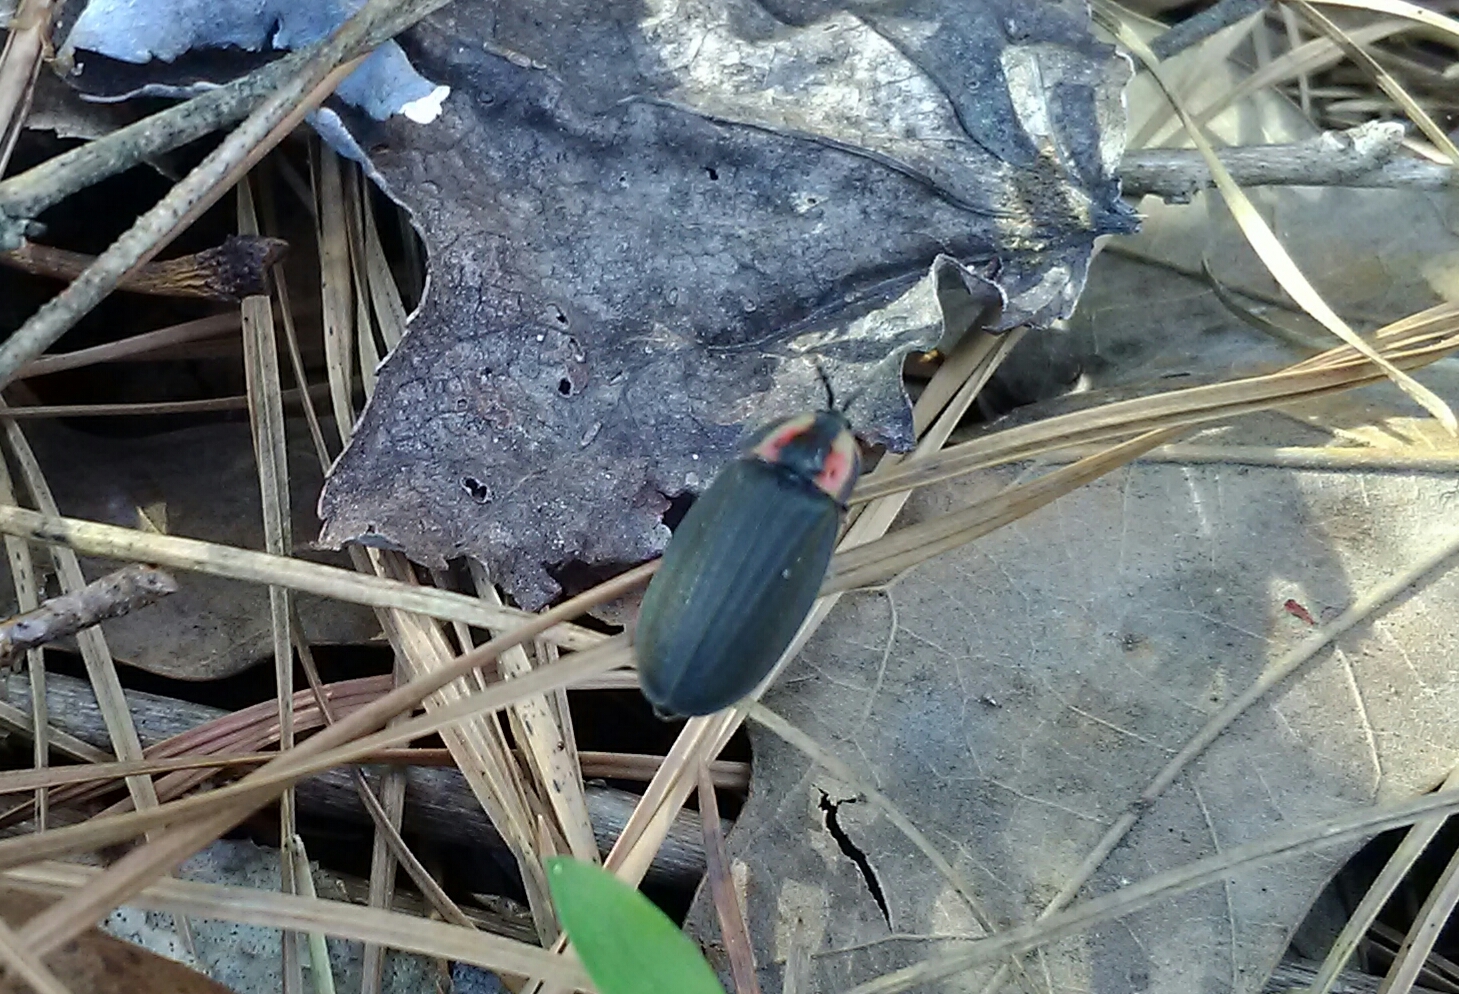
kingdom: Animalia
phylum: Arthropoda
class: Insecta
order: Coleoptera
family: Lampyridae
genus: Photinus
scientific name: Photinus corrusca
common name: Winter firefly
